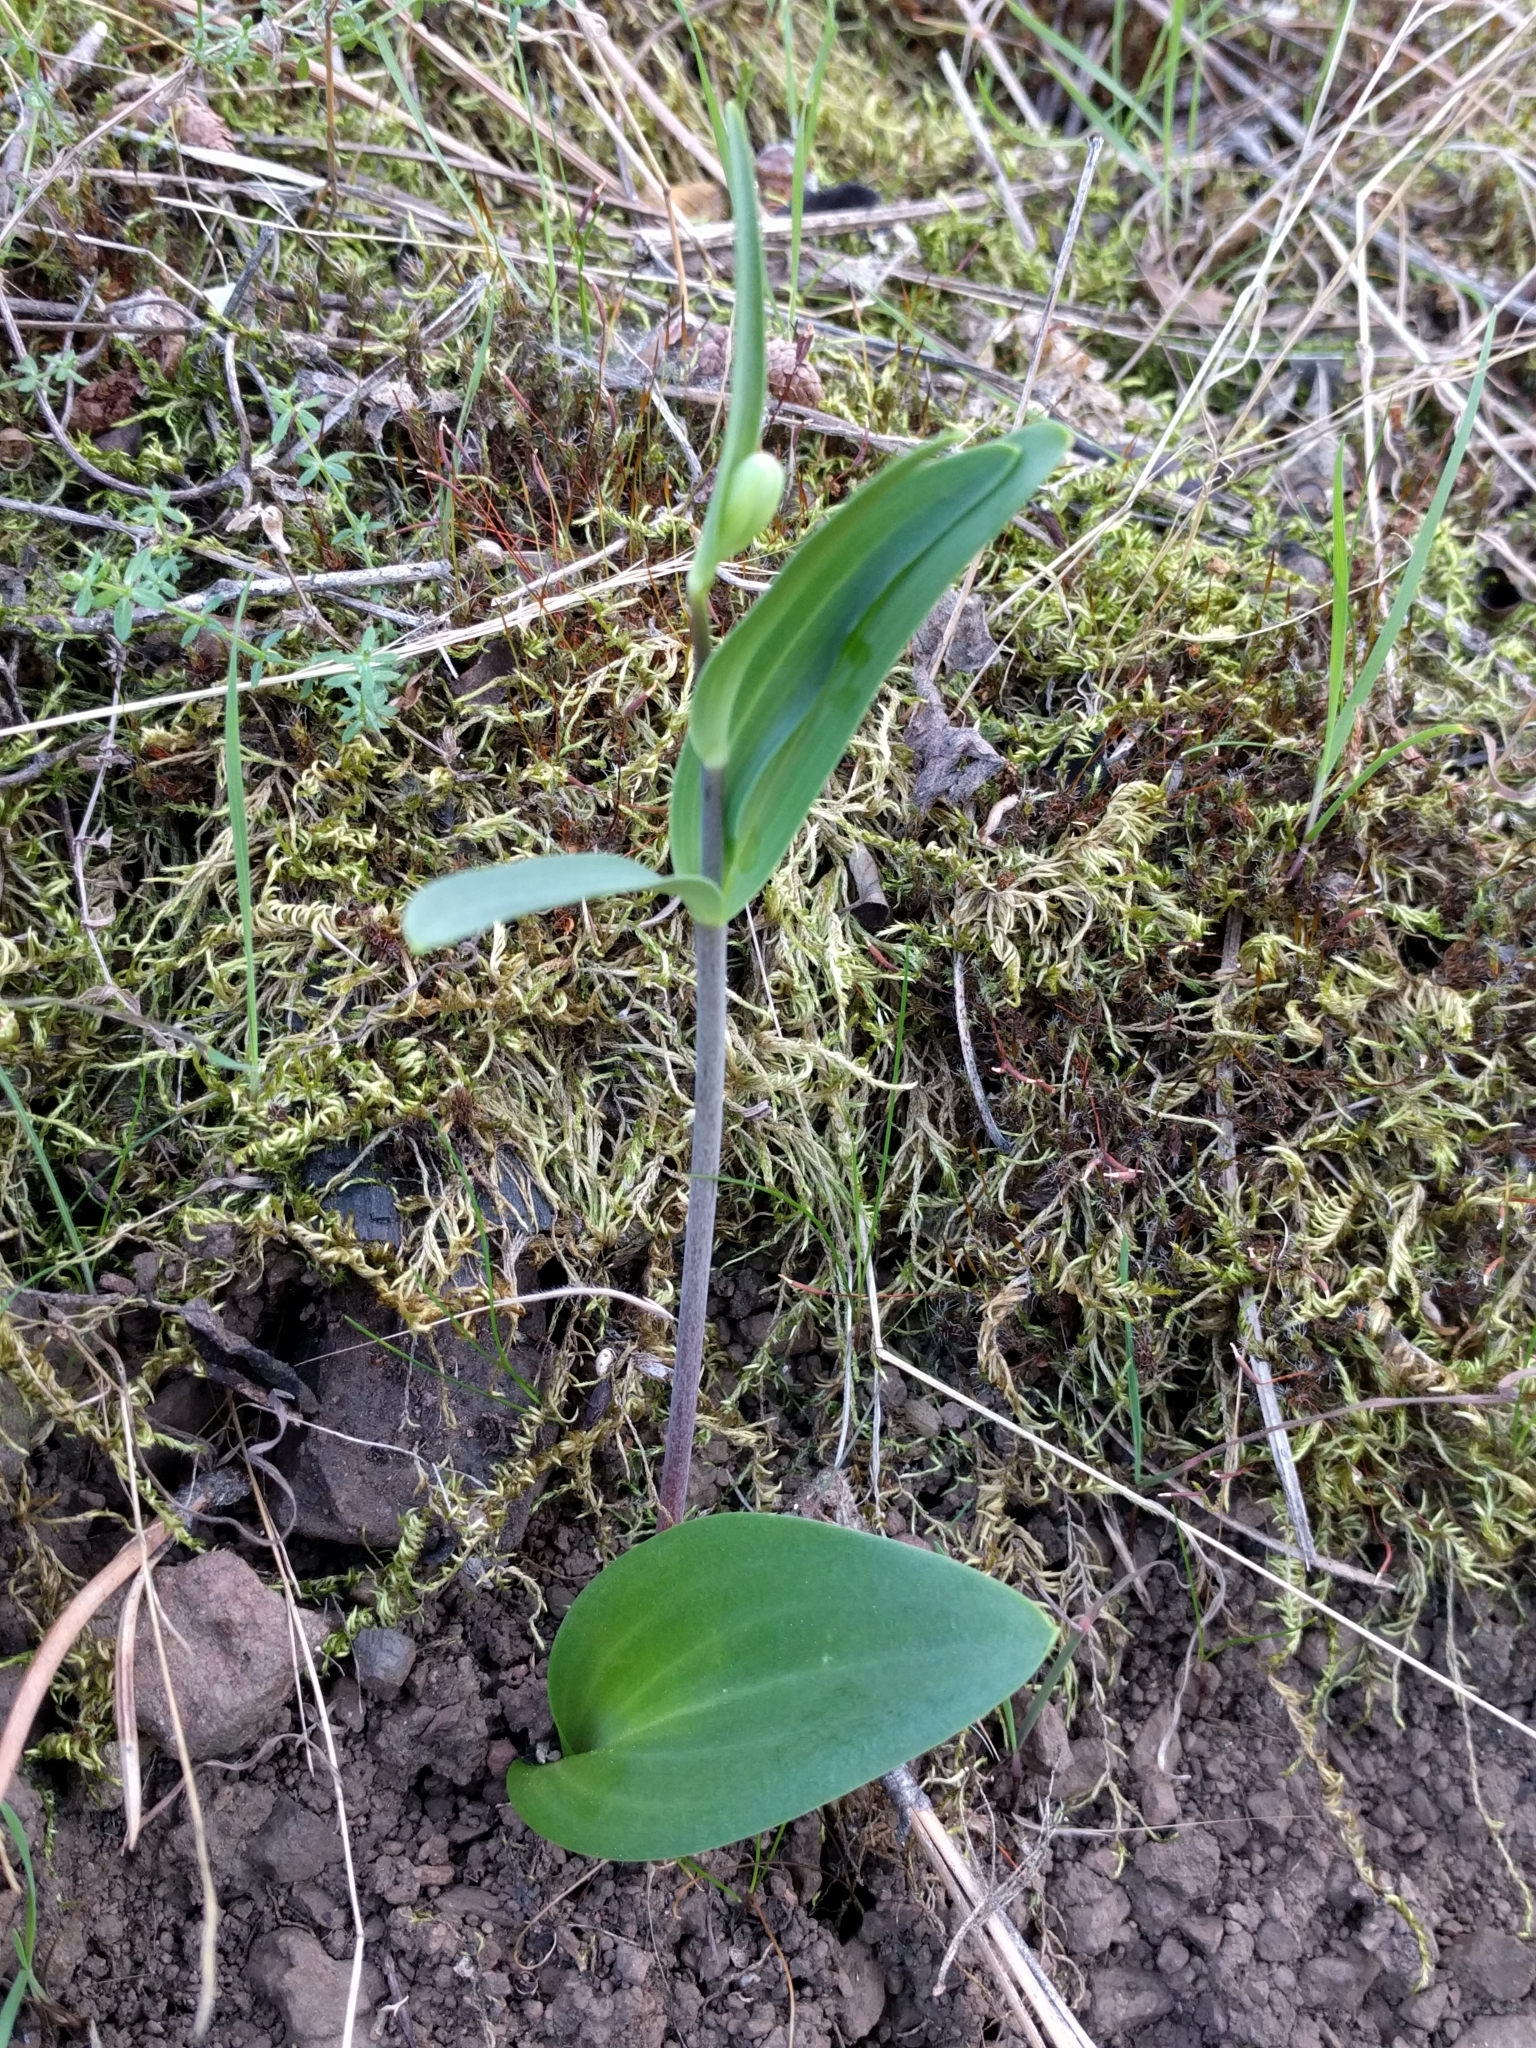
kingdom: Plantae
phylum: Tracheophyta
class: Liliopsida
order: Liliales
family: Liliaceae
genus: Fritillaria
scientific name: Fritillaria affinis
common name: Ojai fritillary
